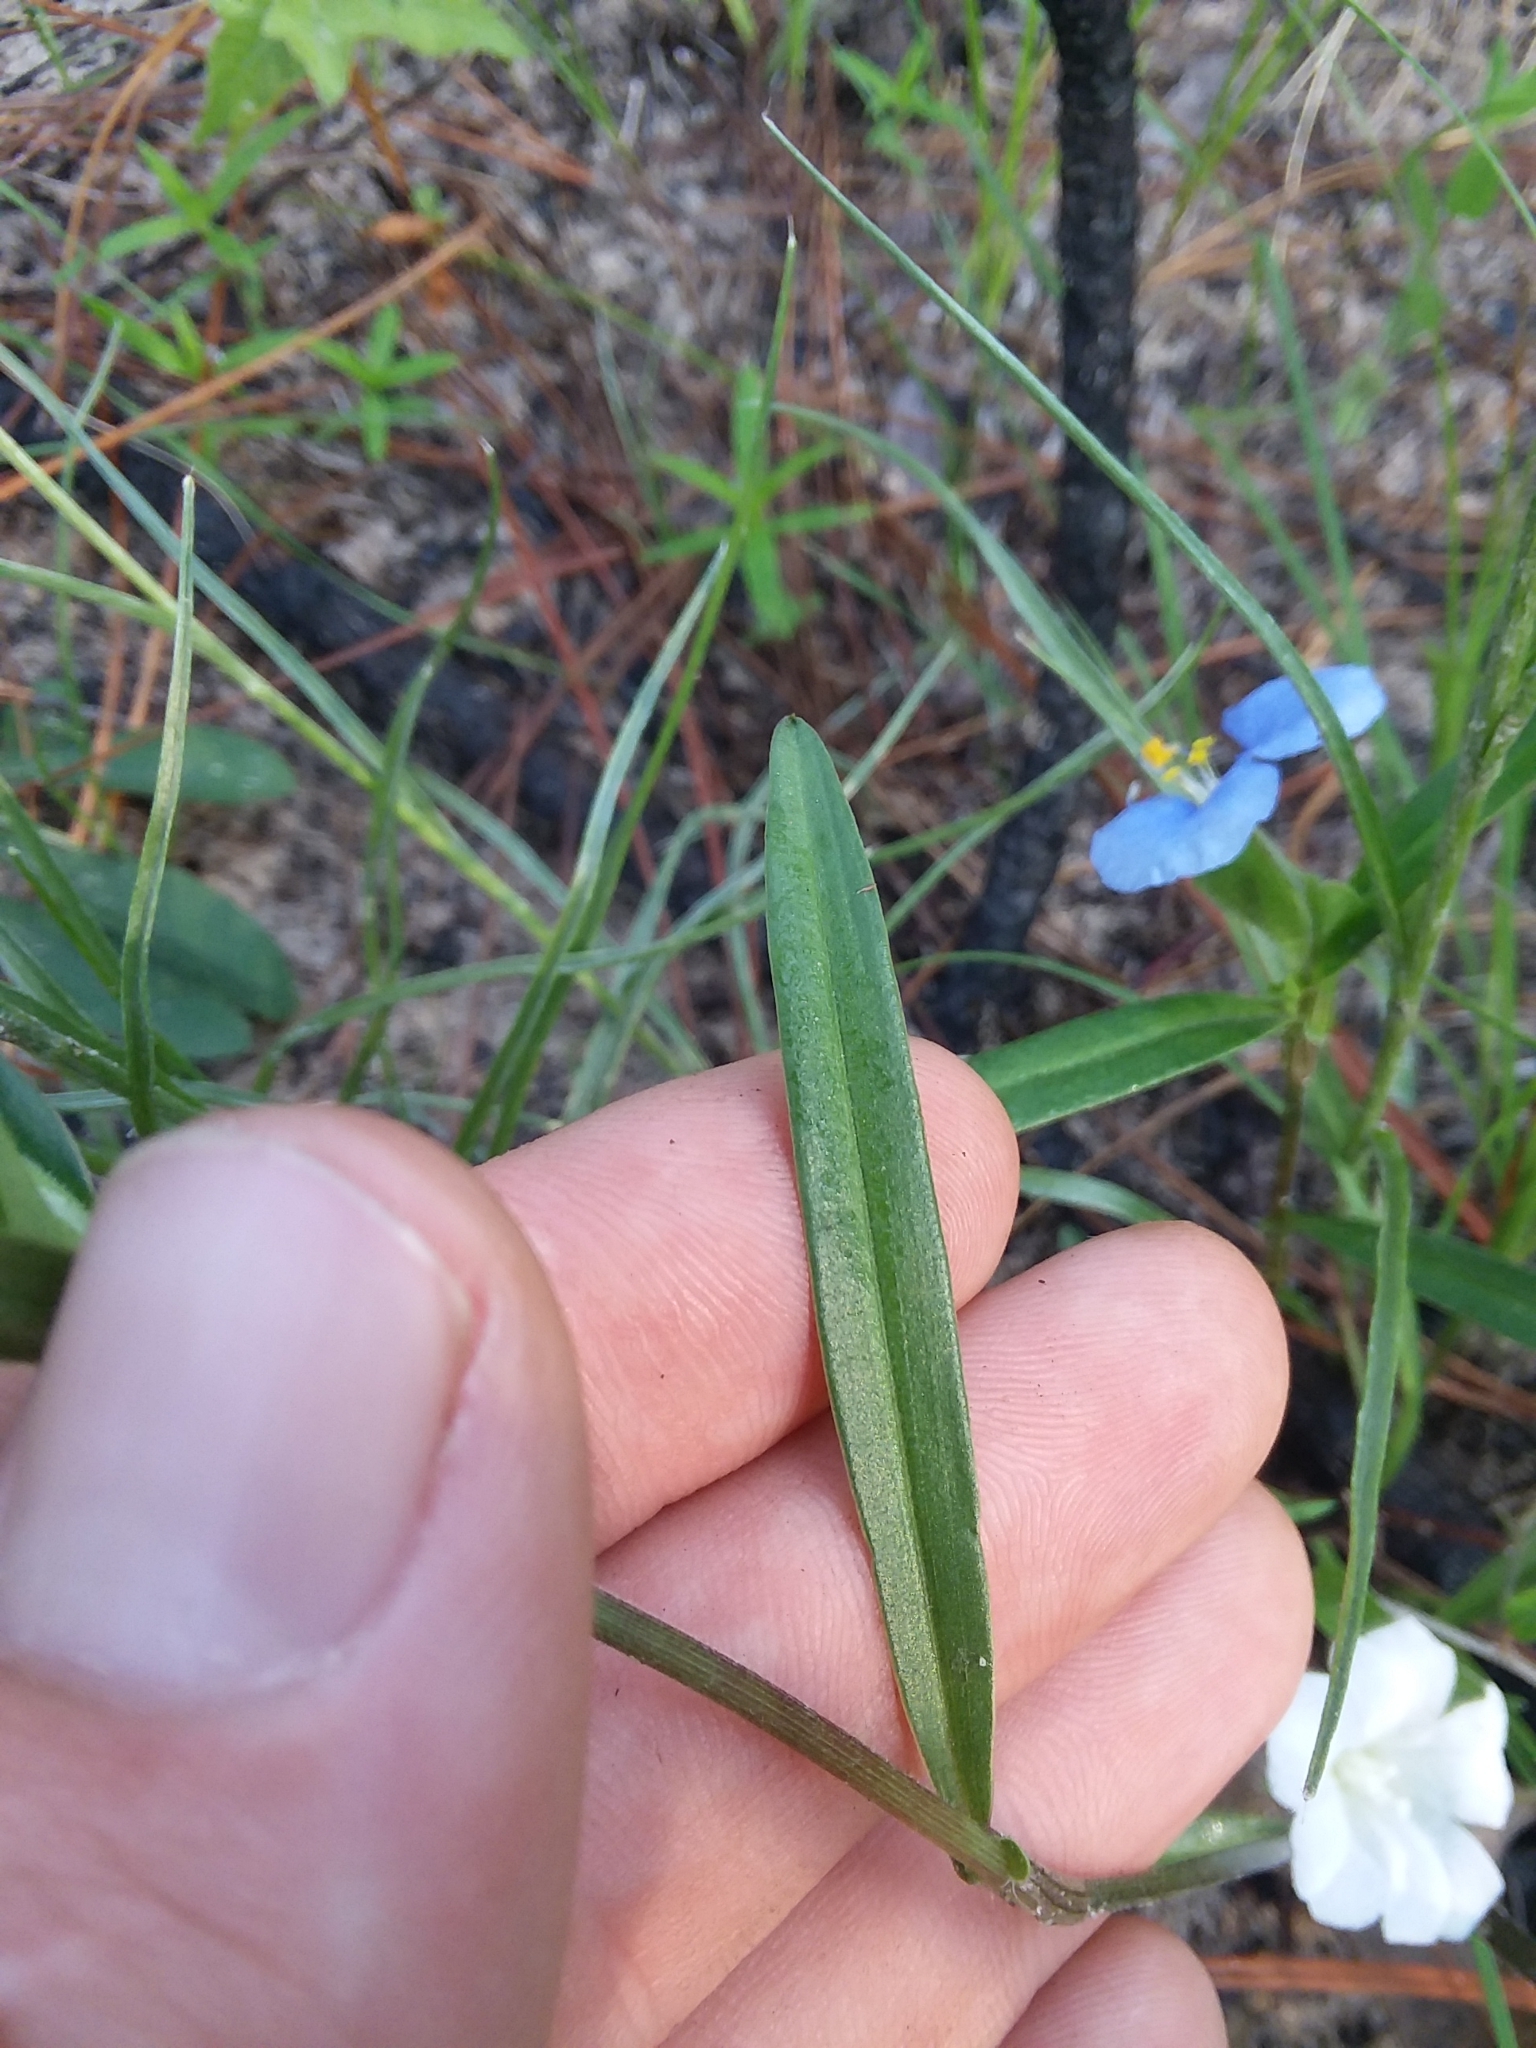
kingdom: Plantae
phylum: Tracheophyta
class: Liliopsida
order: Commelinales
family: Commelinaceae
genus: Commelina
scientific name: Commelina erecta
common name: Blousel blommetjie
